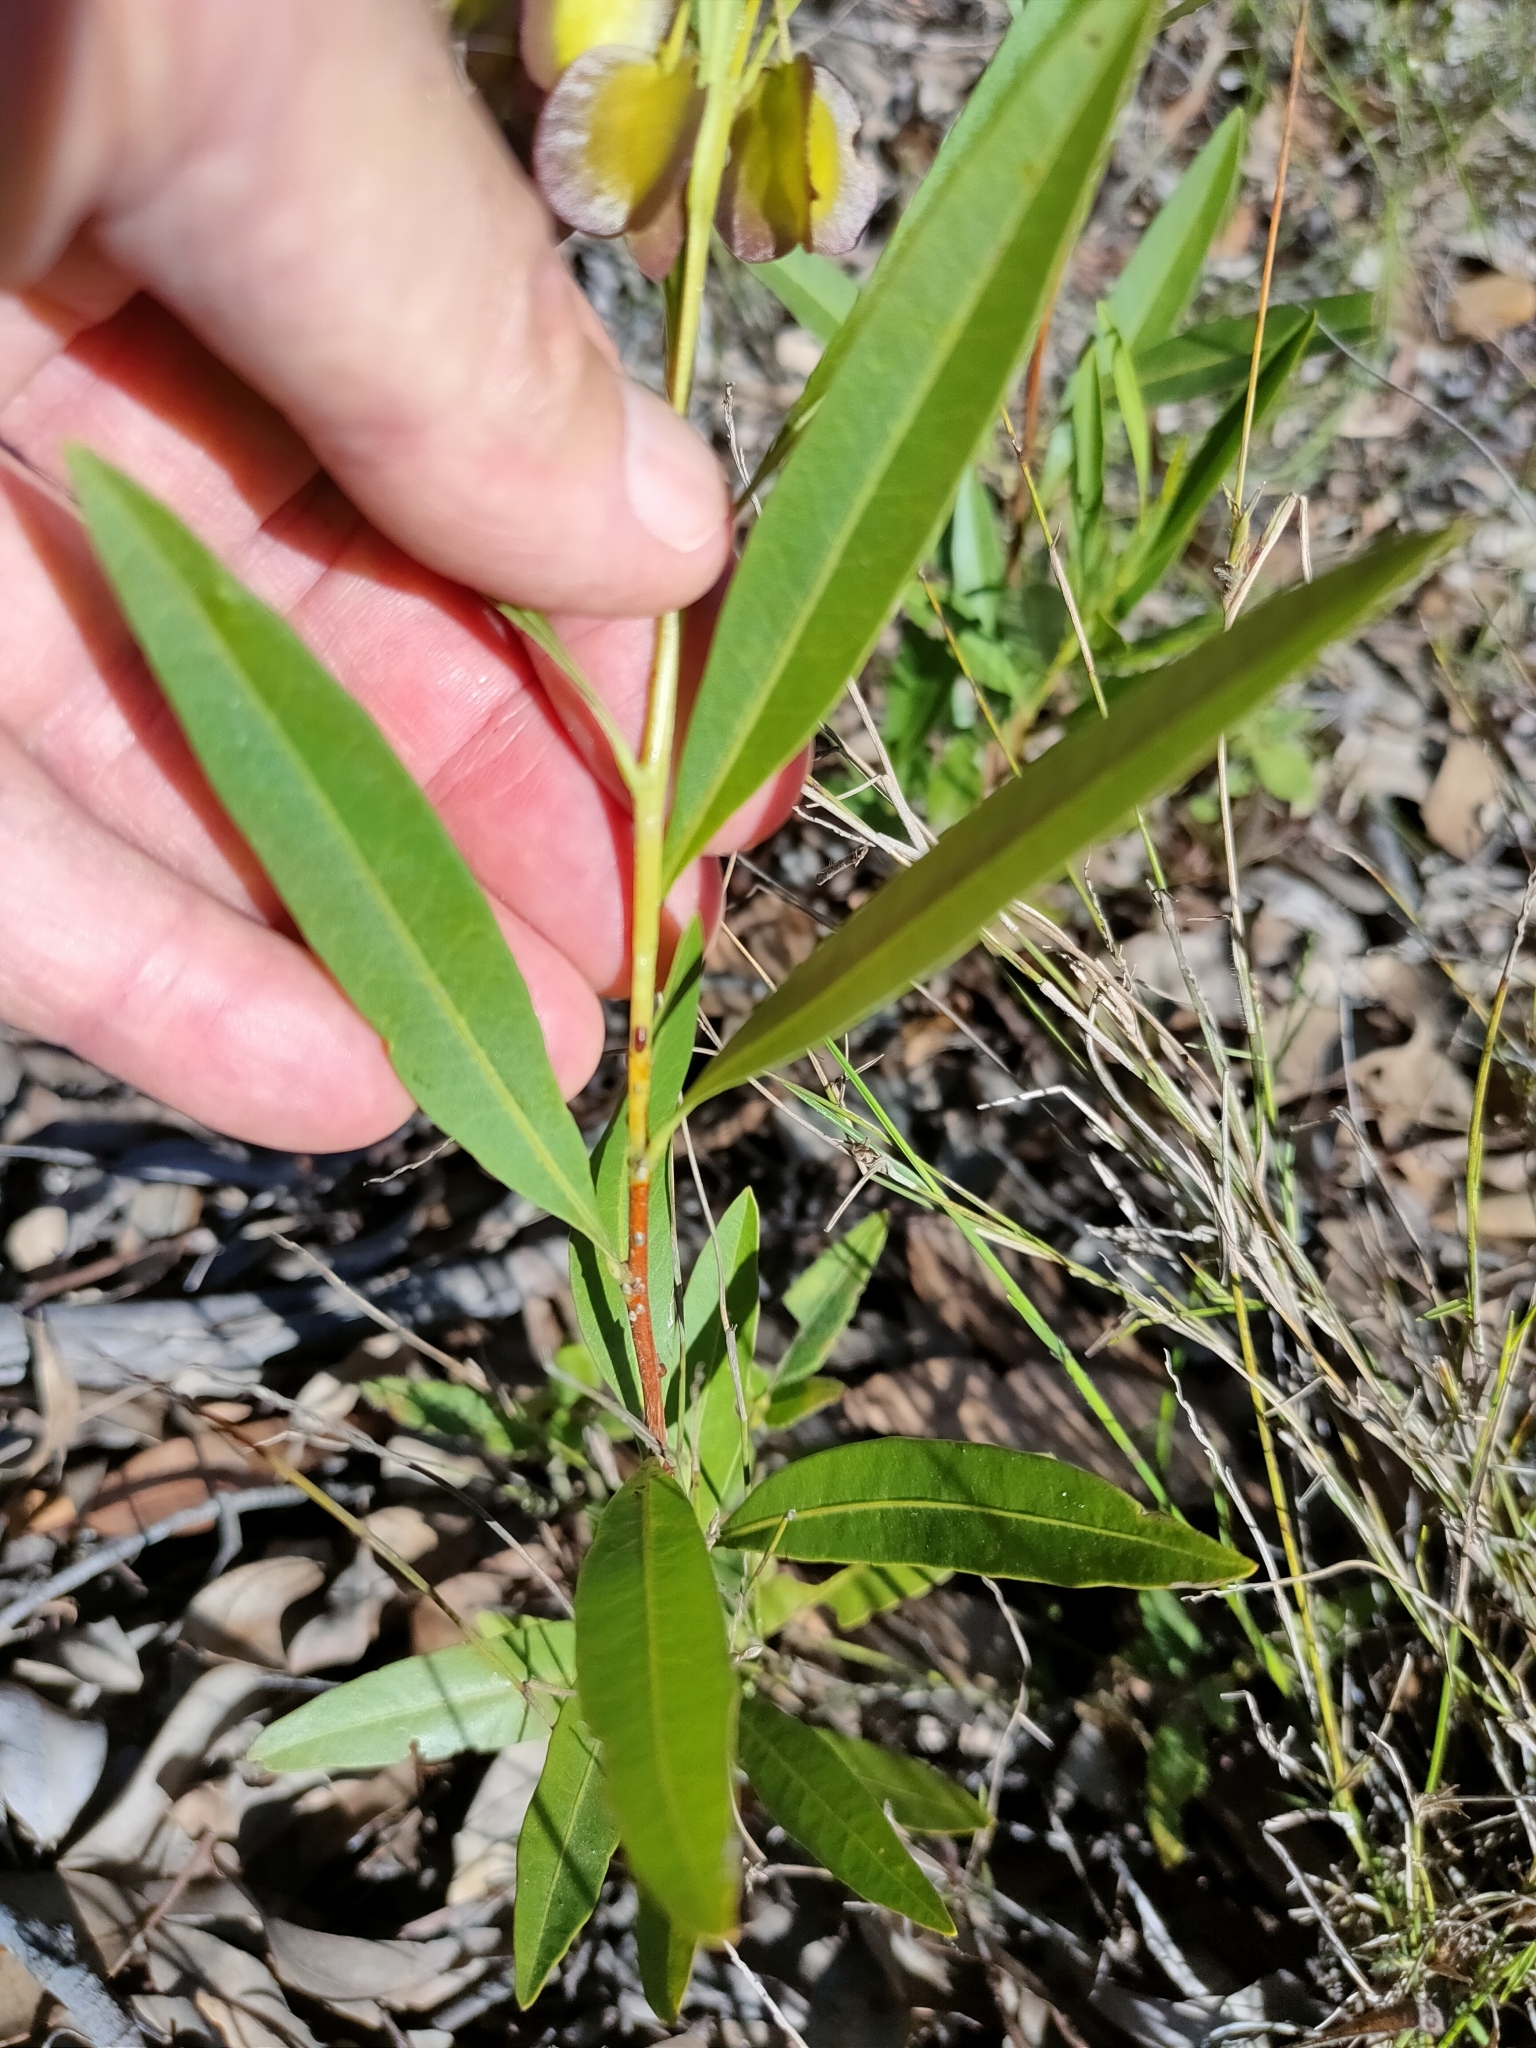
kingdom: Plantae
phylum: Tracheophyta
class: Magnoliopsida
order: Sapindales
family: Sapindaceae
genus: Dodonaea
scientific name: Dodonaea lanceolata
